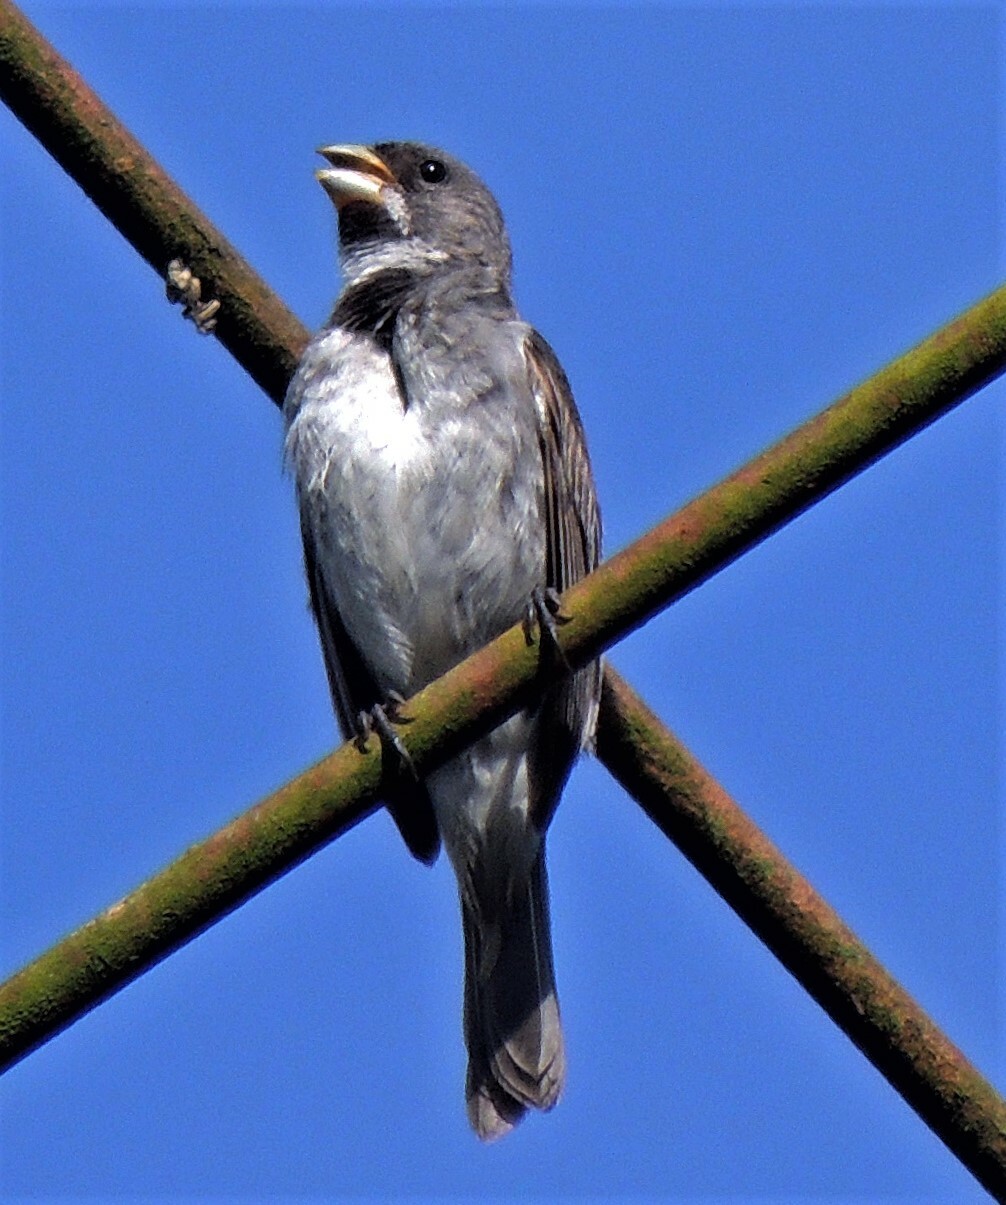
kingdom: Animalia
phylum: Chordata
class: Aves
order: Passeriformes
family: Thraupidae
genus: Sporophila
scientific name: Sporophila caerulescens
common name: Double-collared seedeater
